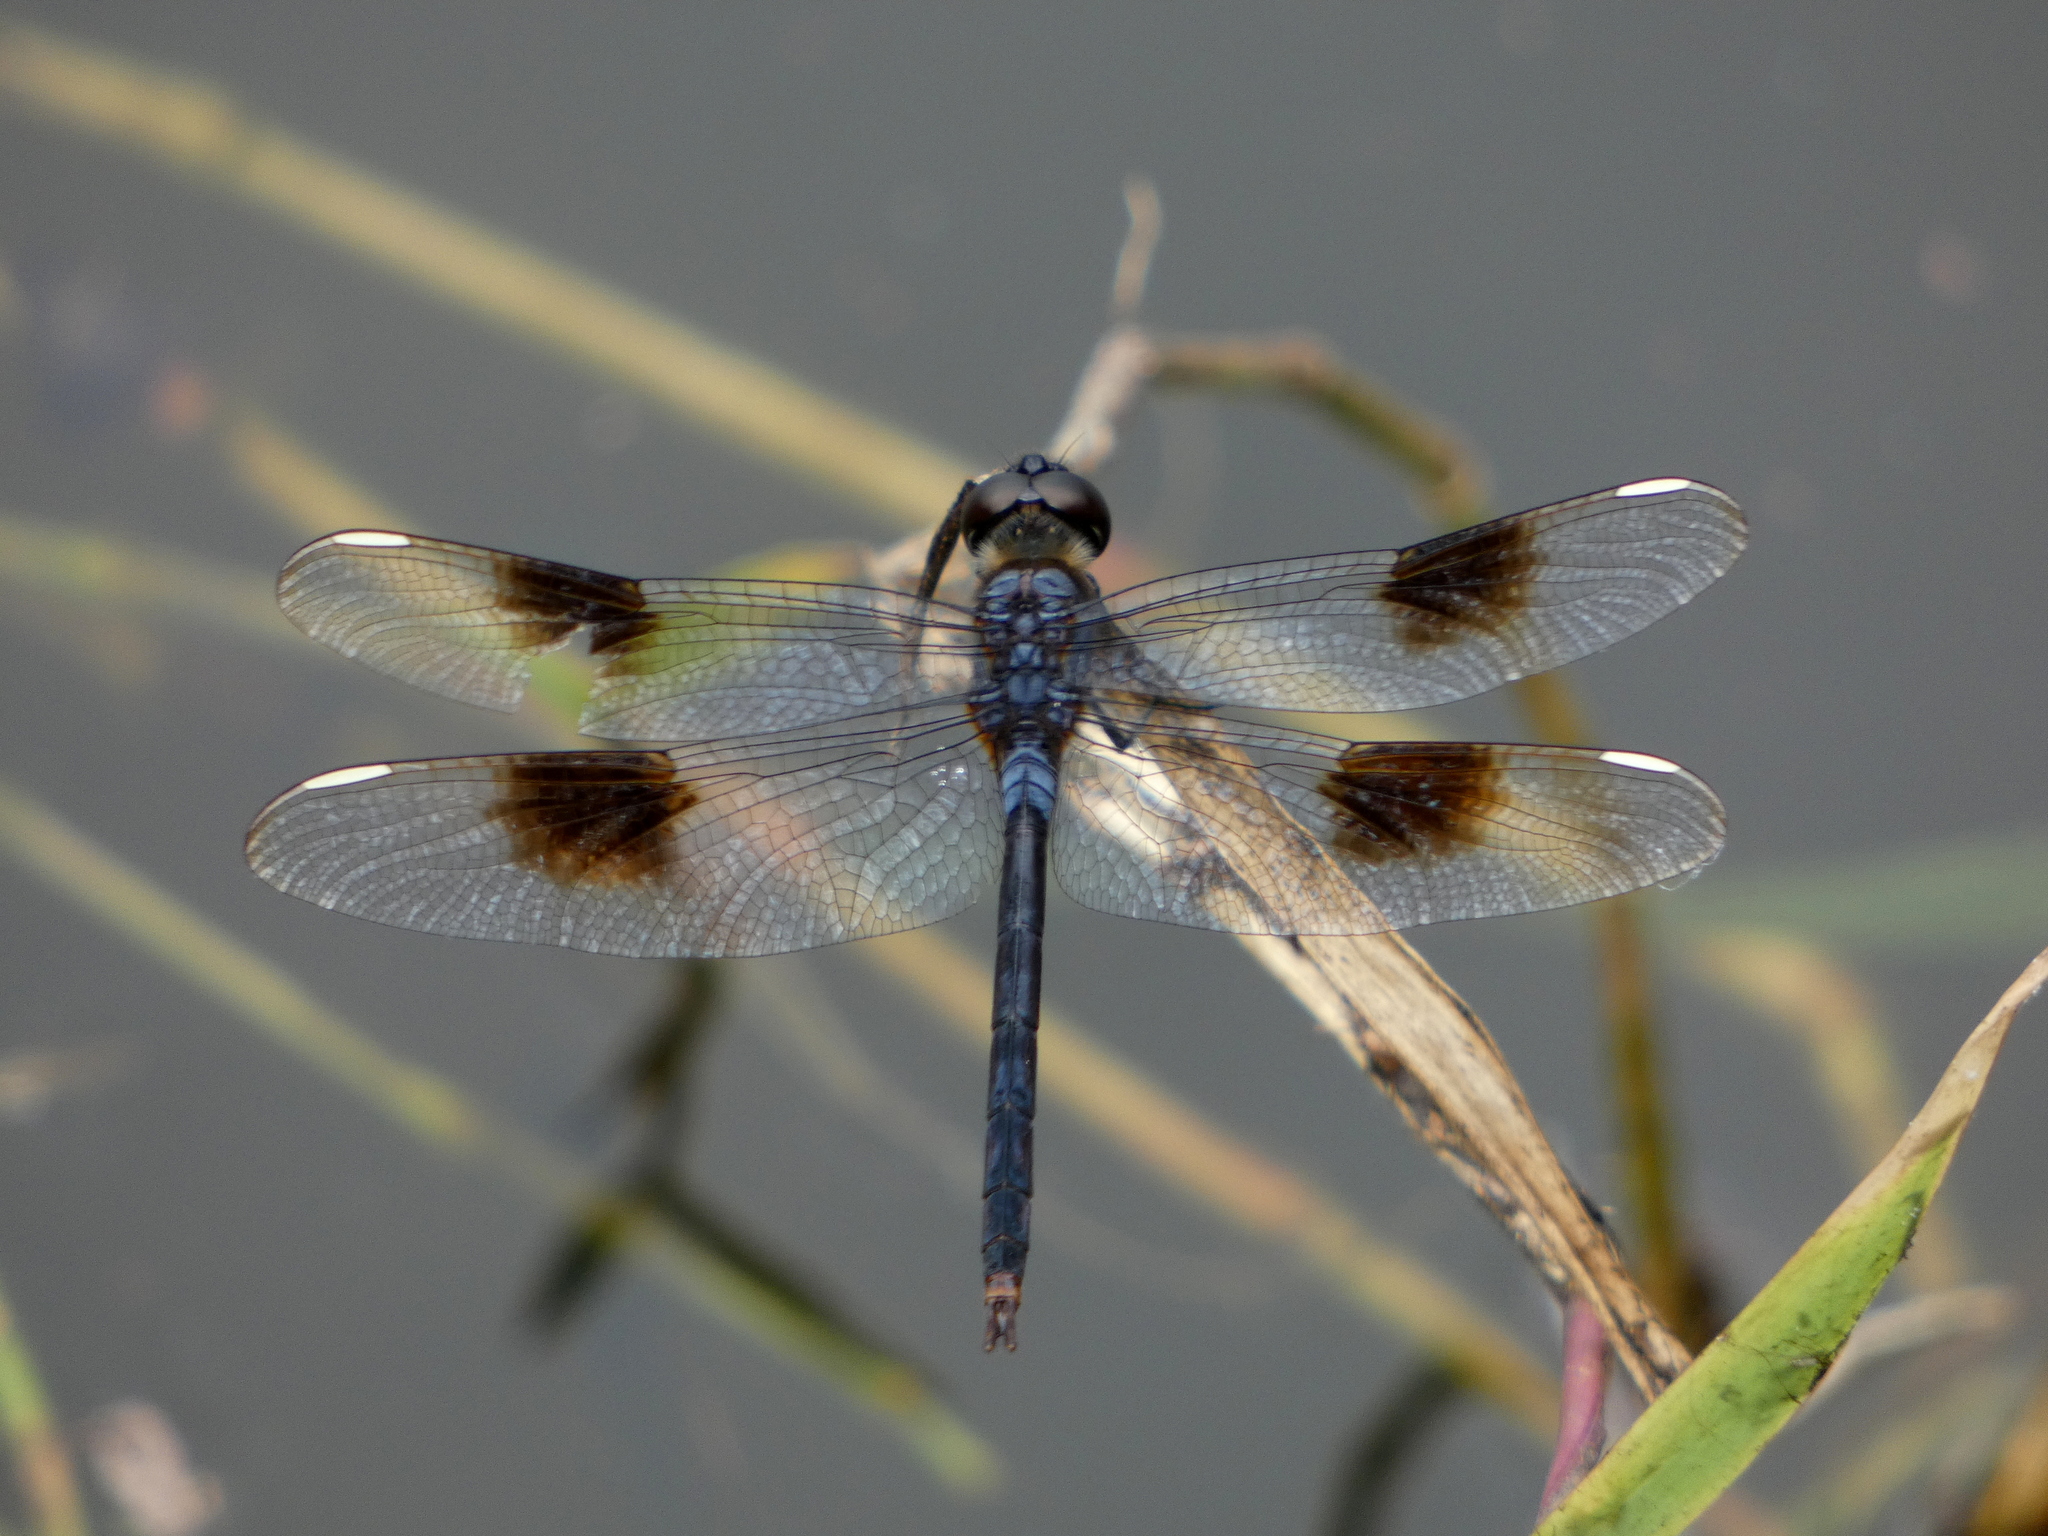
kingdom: Animalia
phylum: Arthropoda
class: Insecta
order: Odonata
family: Libellulidae
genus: Brachymesia
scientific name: Brachymesia gravida
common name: Four-spotted pennant
